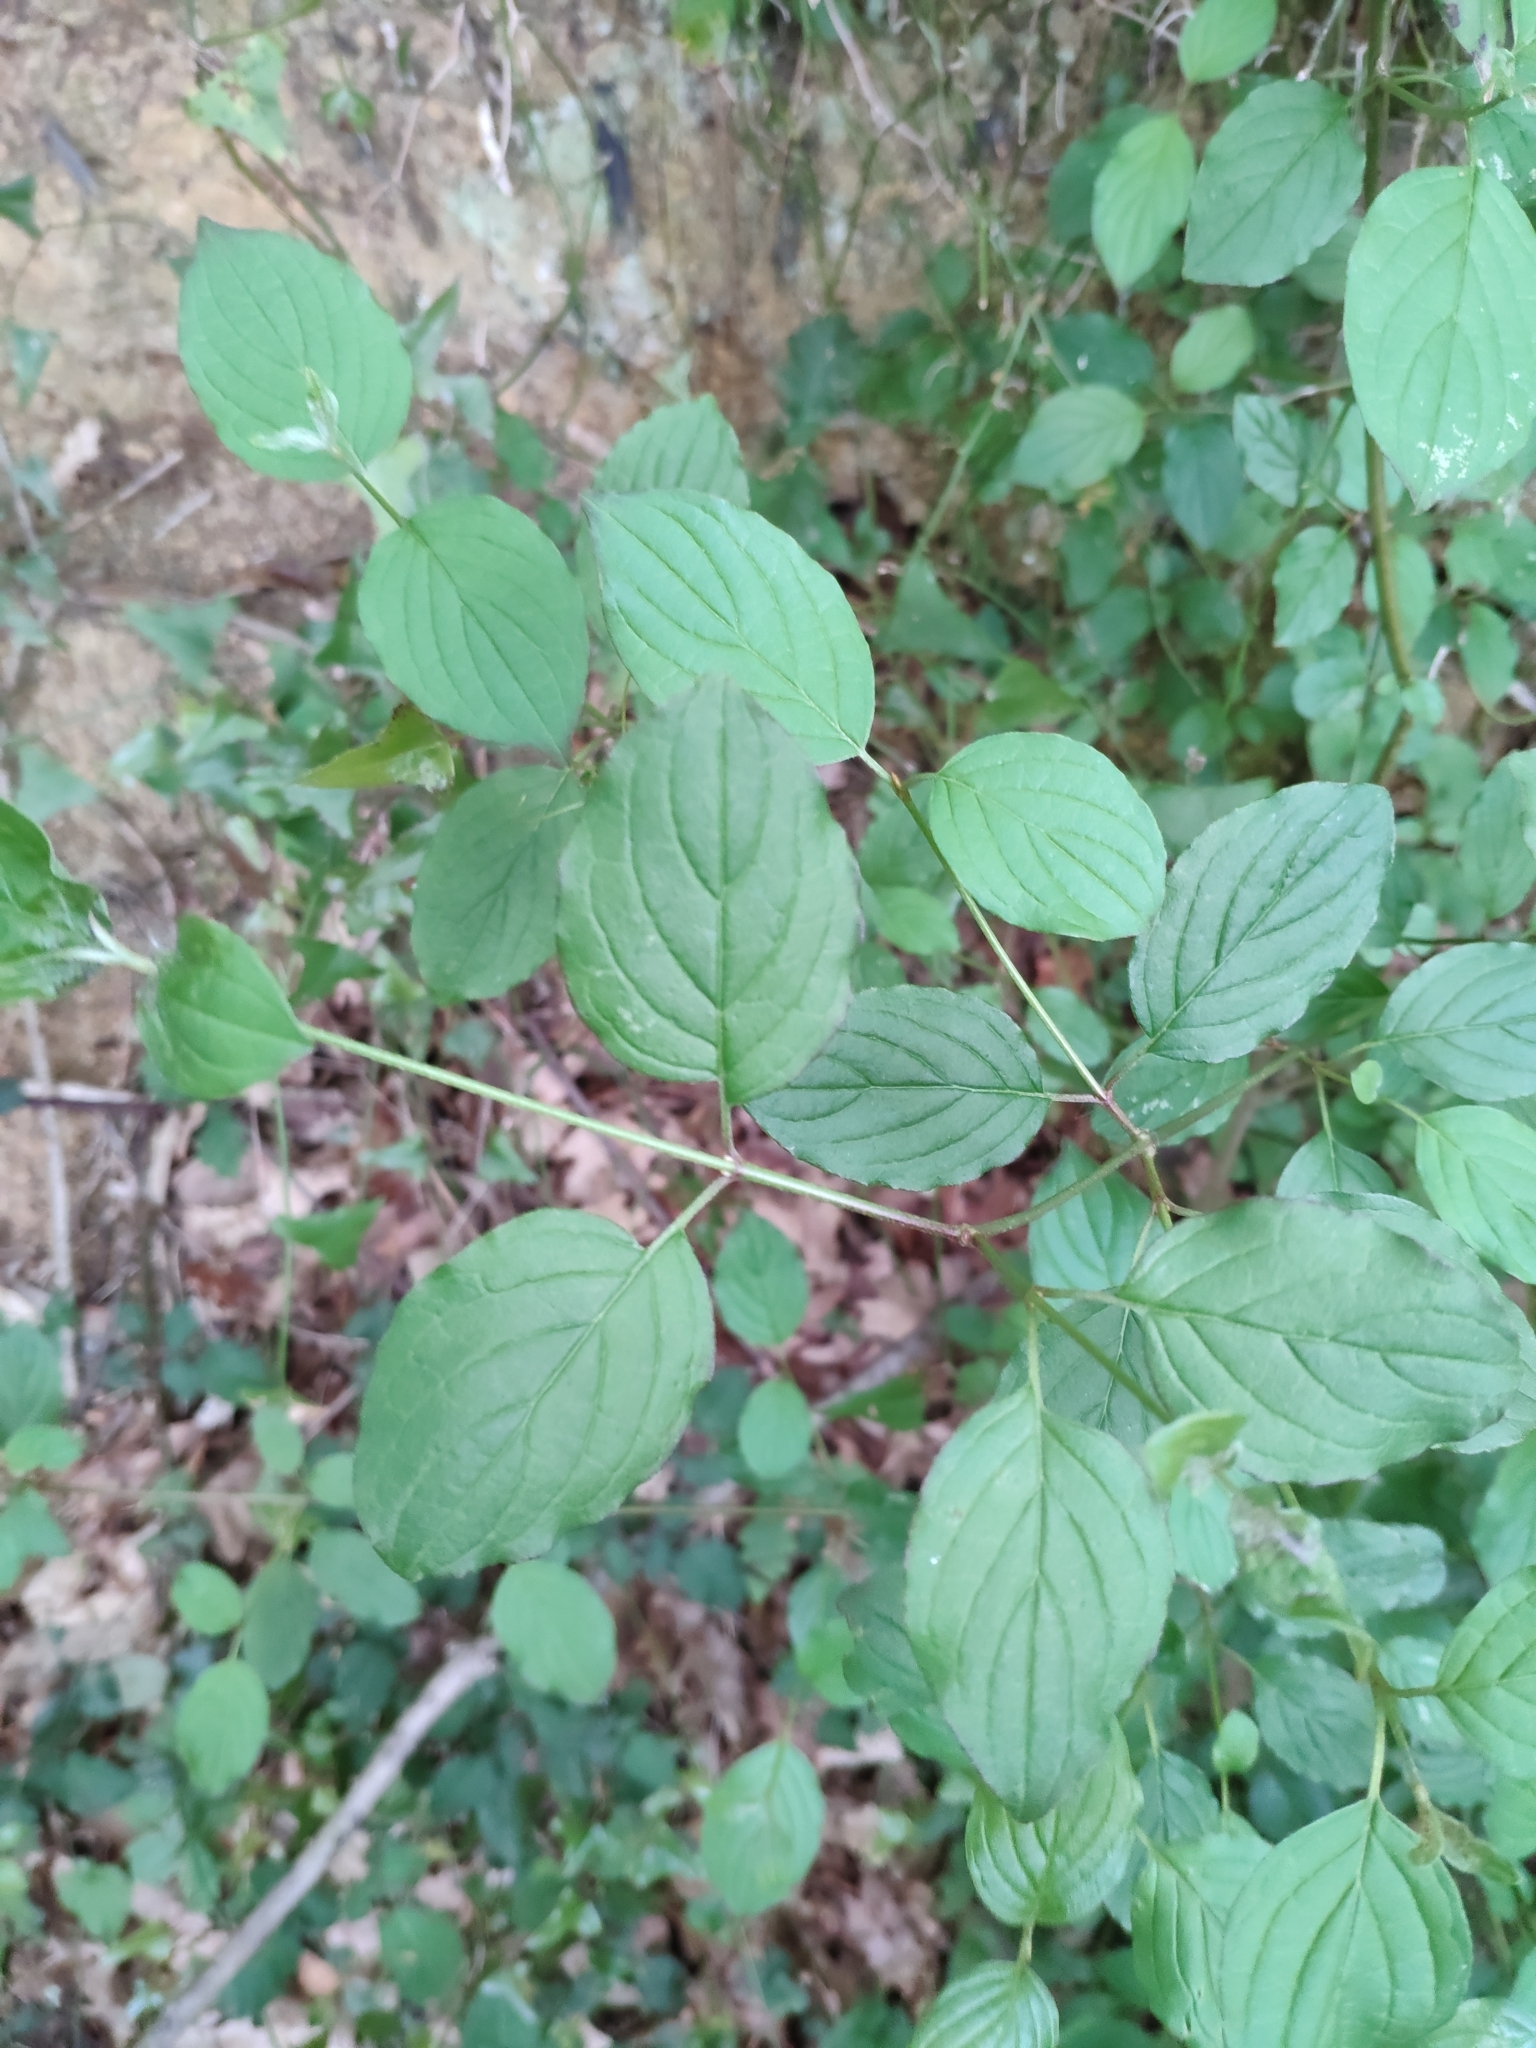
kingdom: Plantae
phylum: Tracheophyta
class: Magnoliopsida
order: Cornales
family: Cornaceae
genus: Cornus
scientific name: Cornus sanguinea
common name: Dogwood
